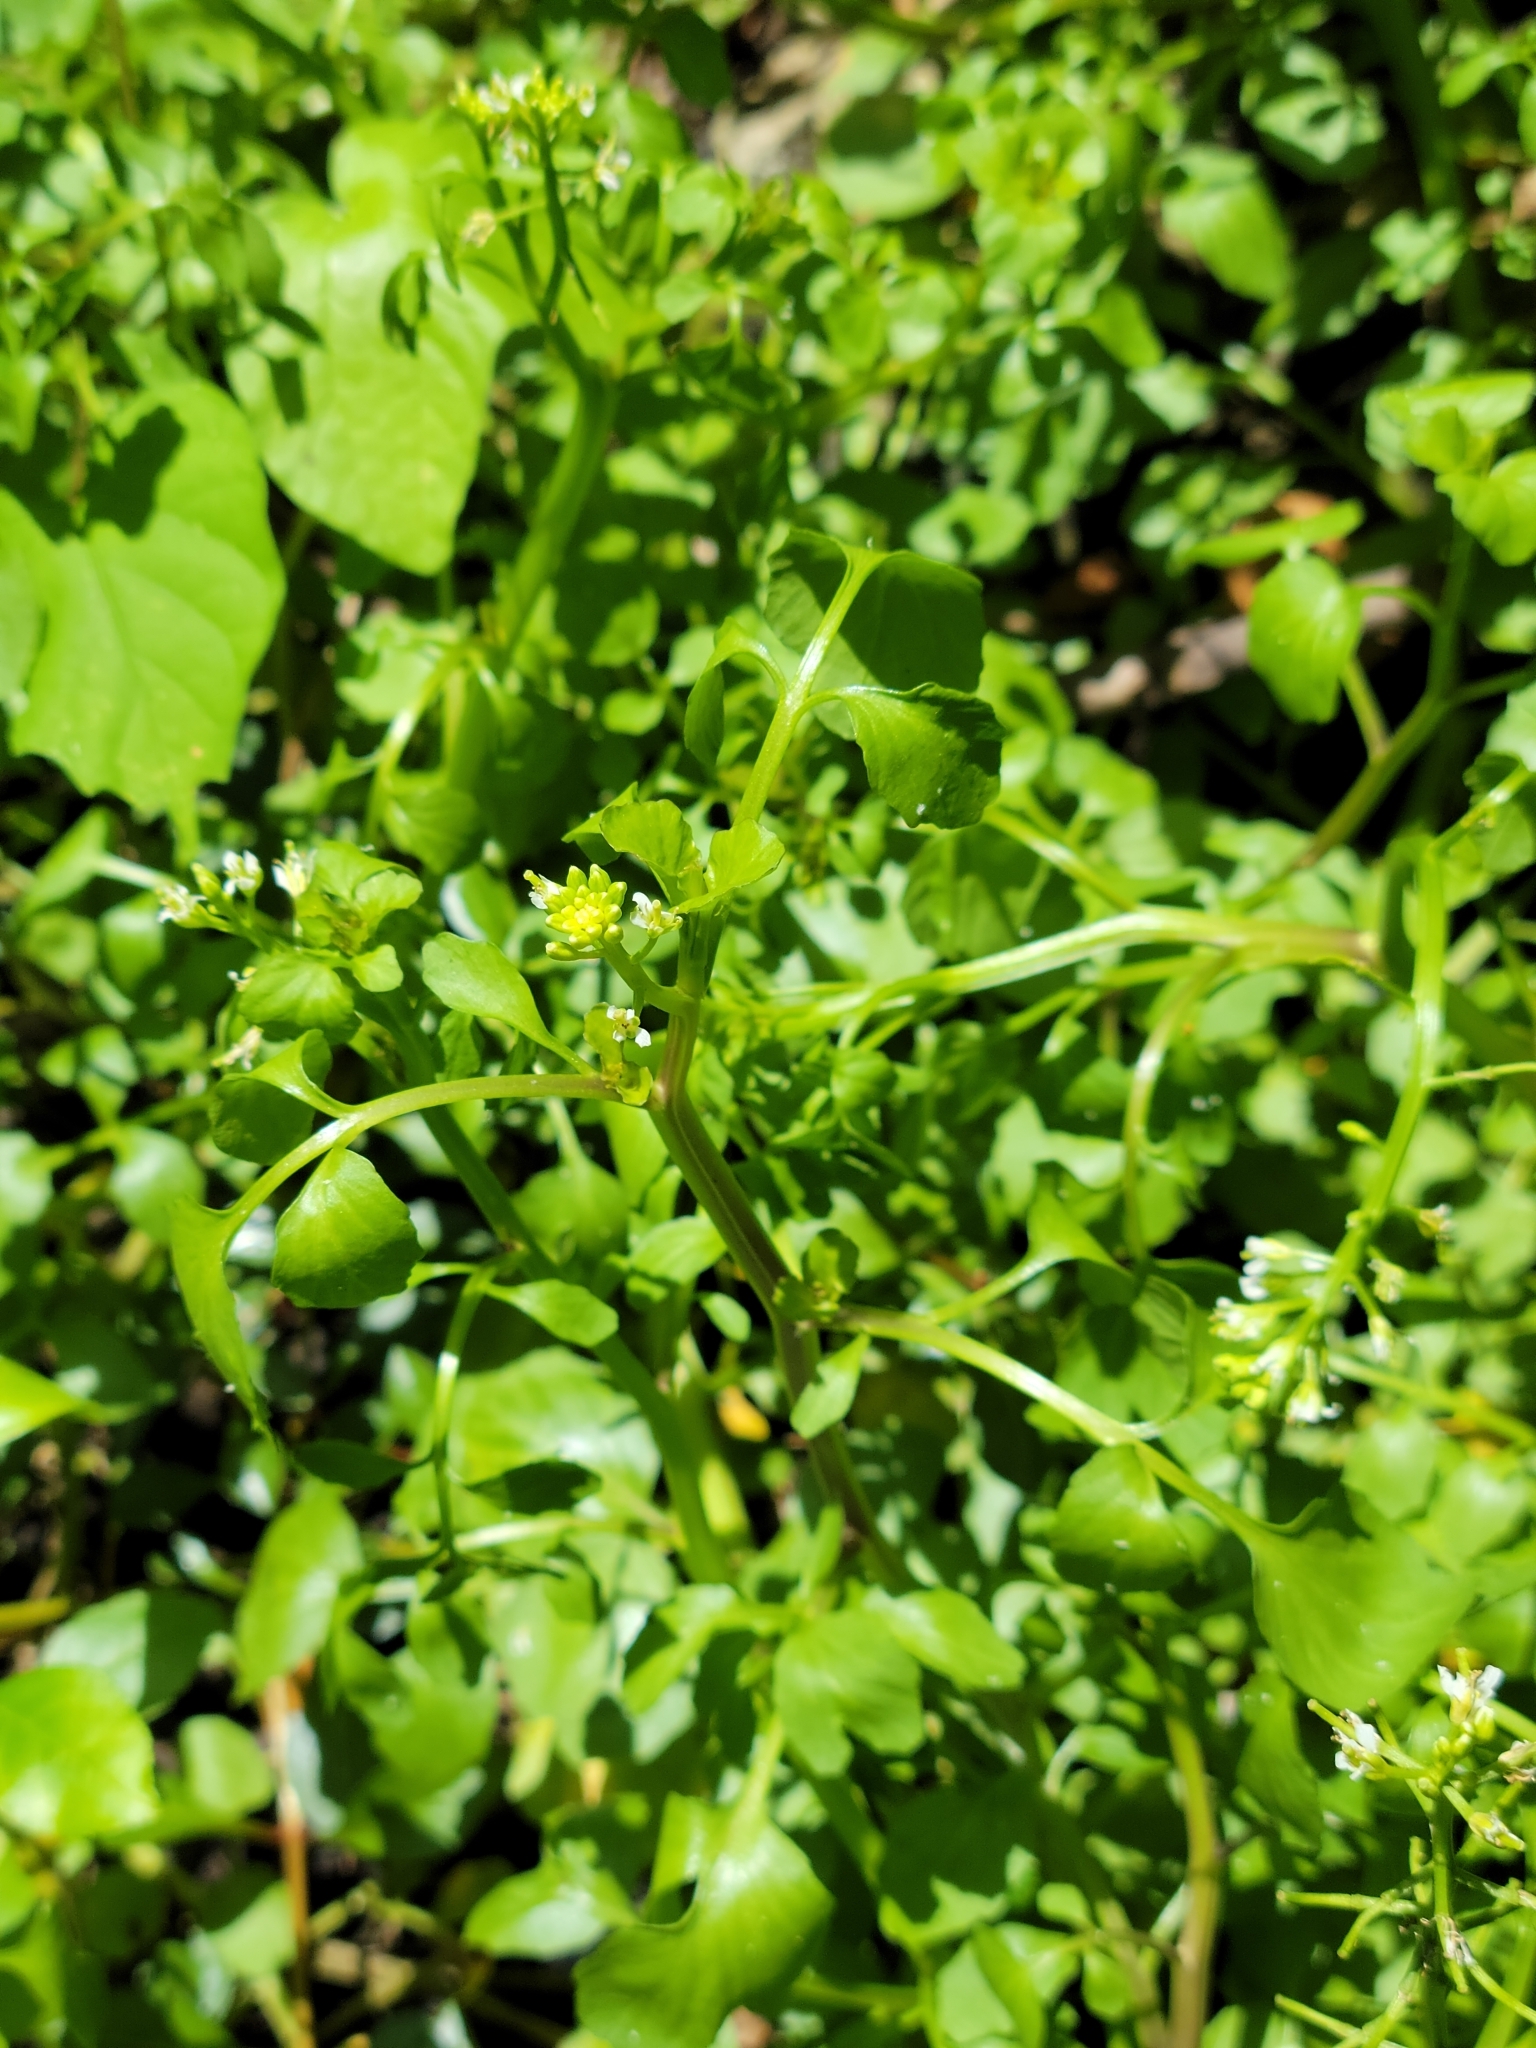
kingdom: Plantae
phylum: Tracheophyta
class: Magnoliopsida
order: Brassicales
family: Brassicaceae
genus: Nasturtium
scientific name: Nasturtium floridanum
